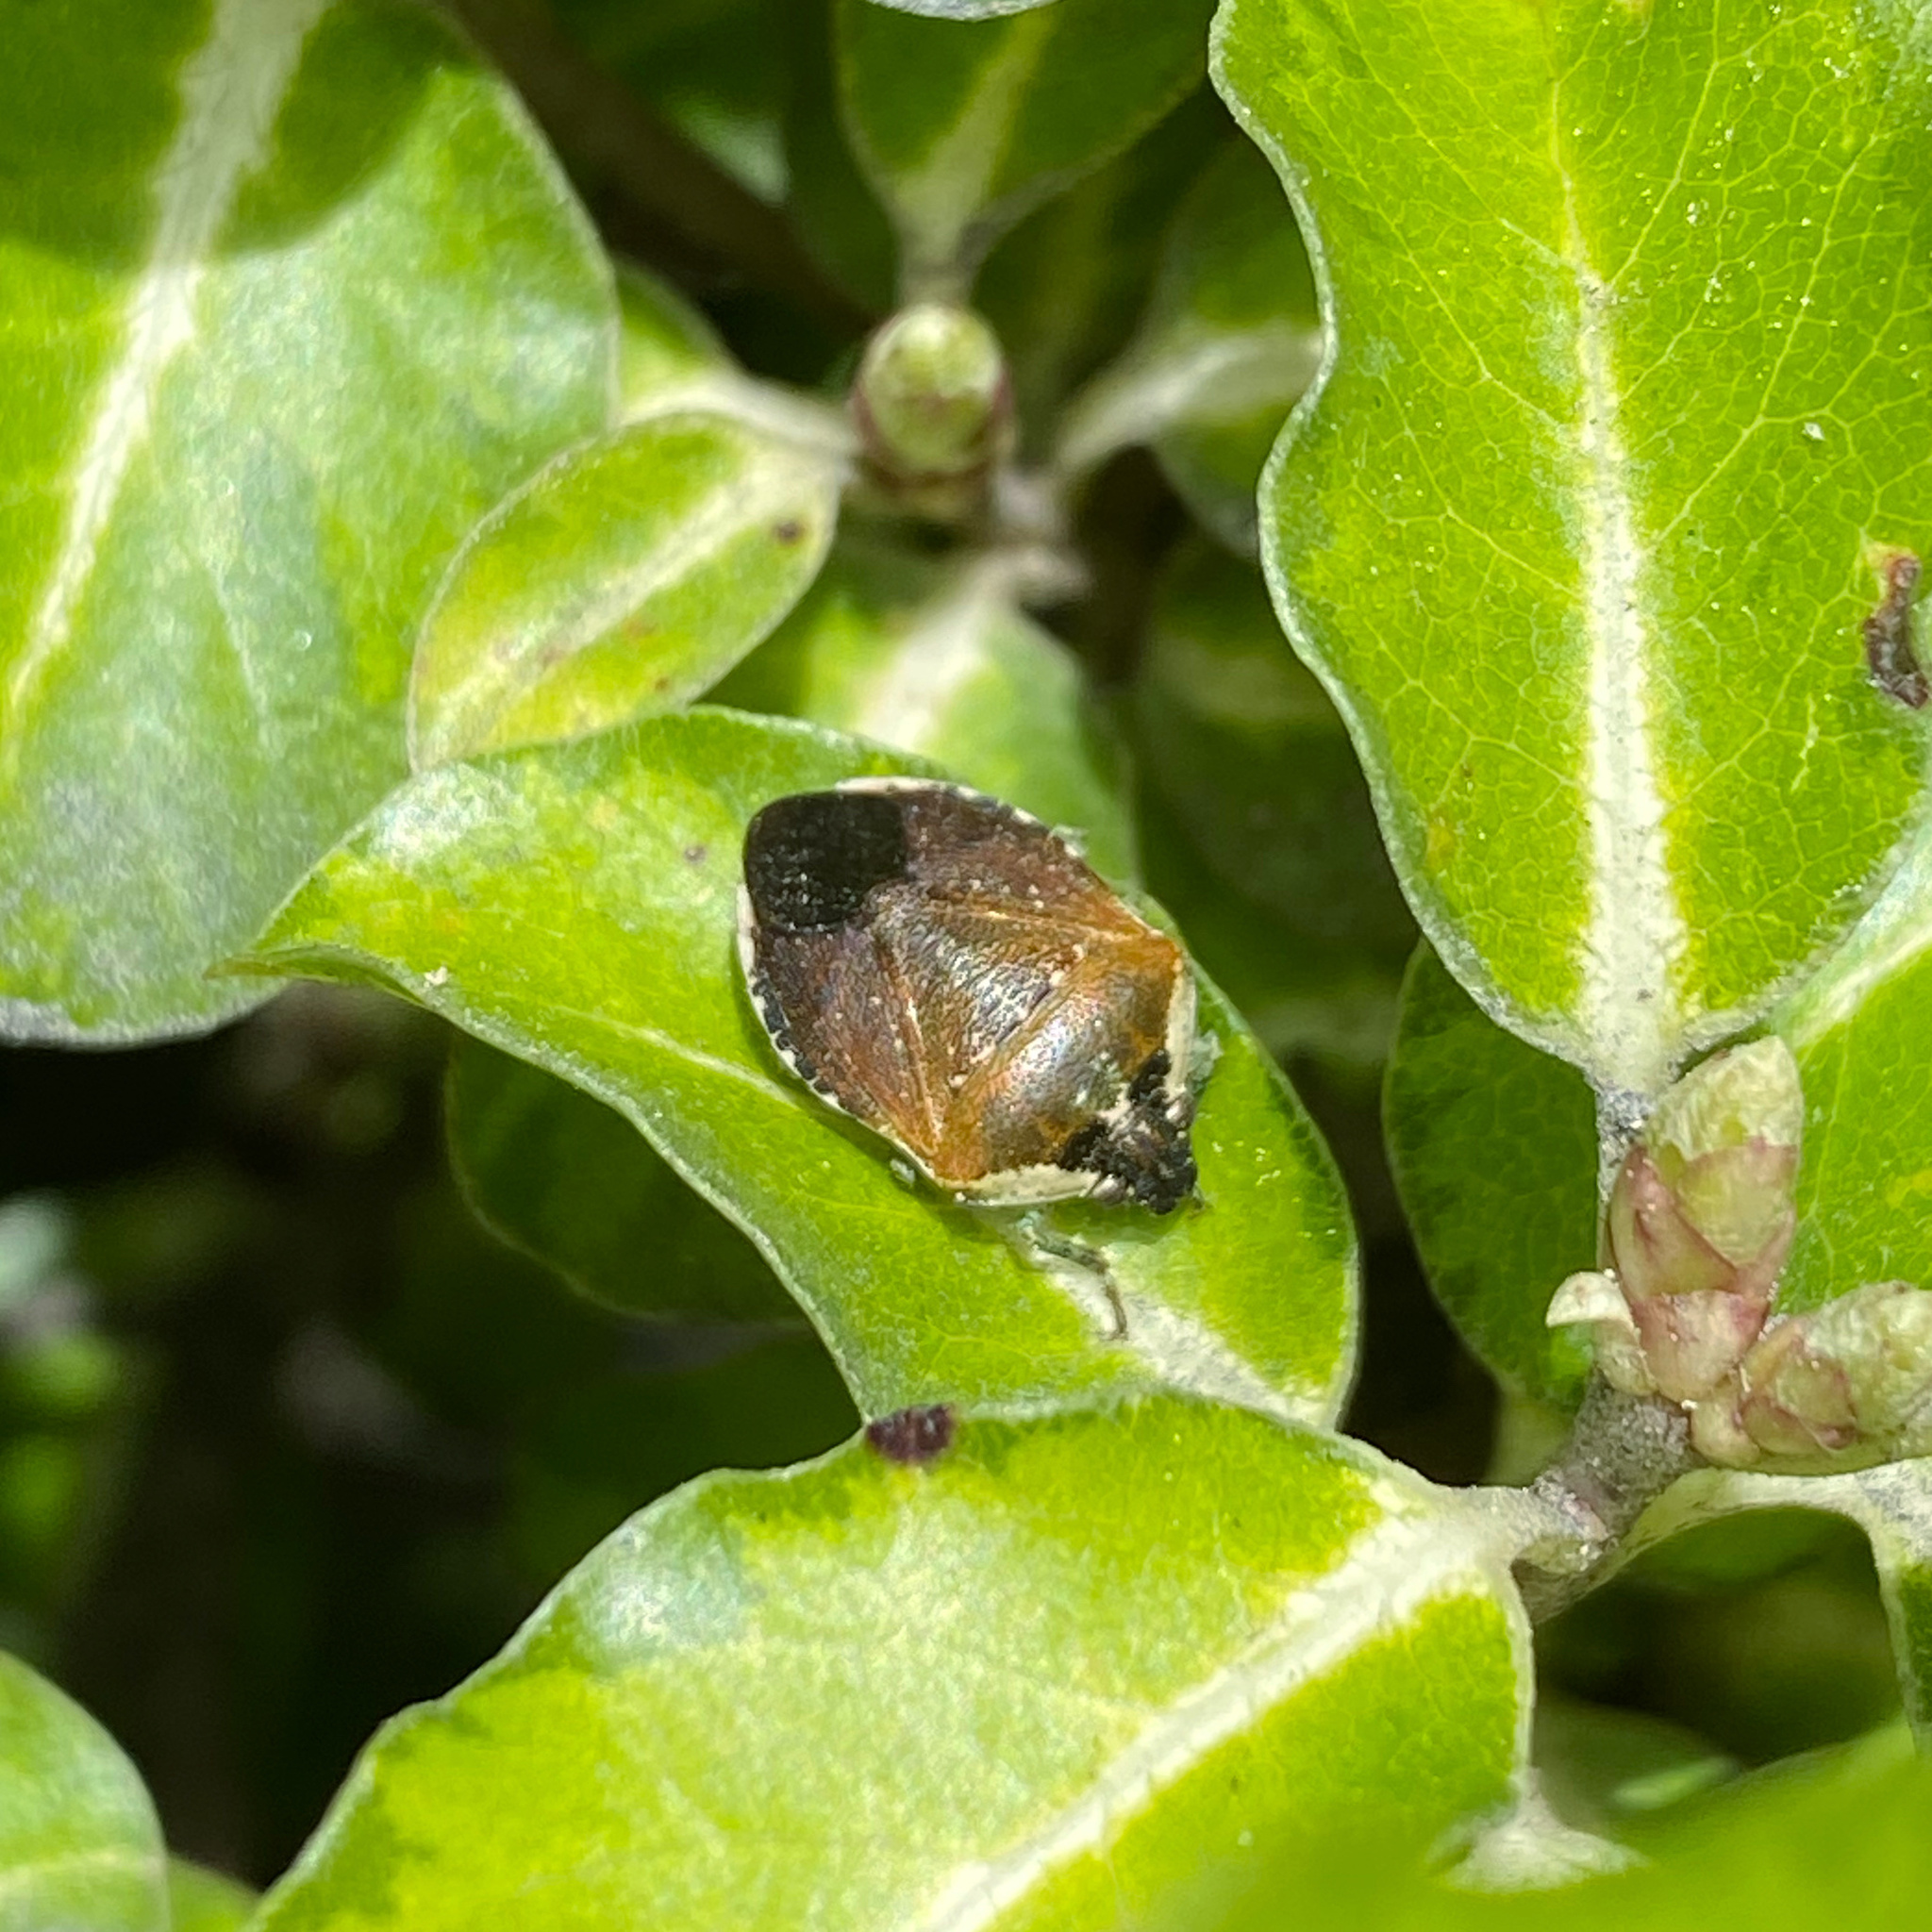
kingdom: Animalia
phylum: Arthropoda
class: Insecta
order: Hemiptera
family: Pentatomidae
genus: Monteithiella
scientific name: Monteithiella
